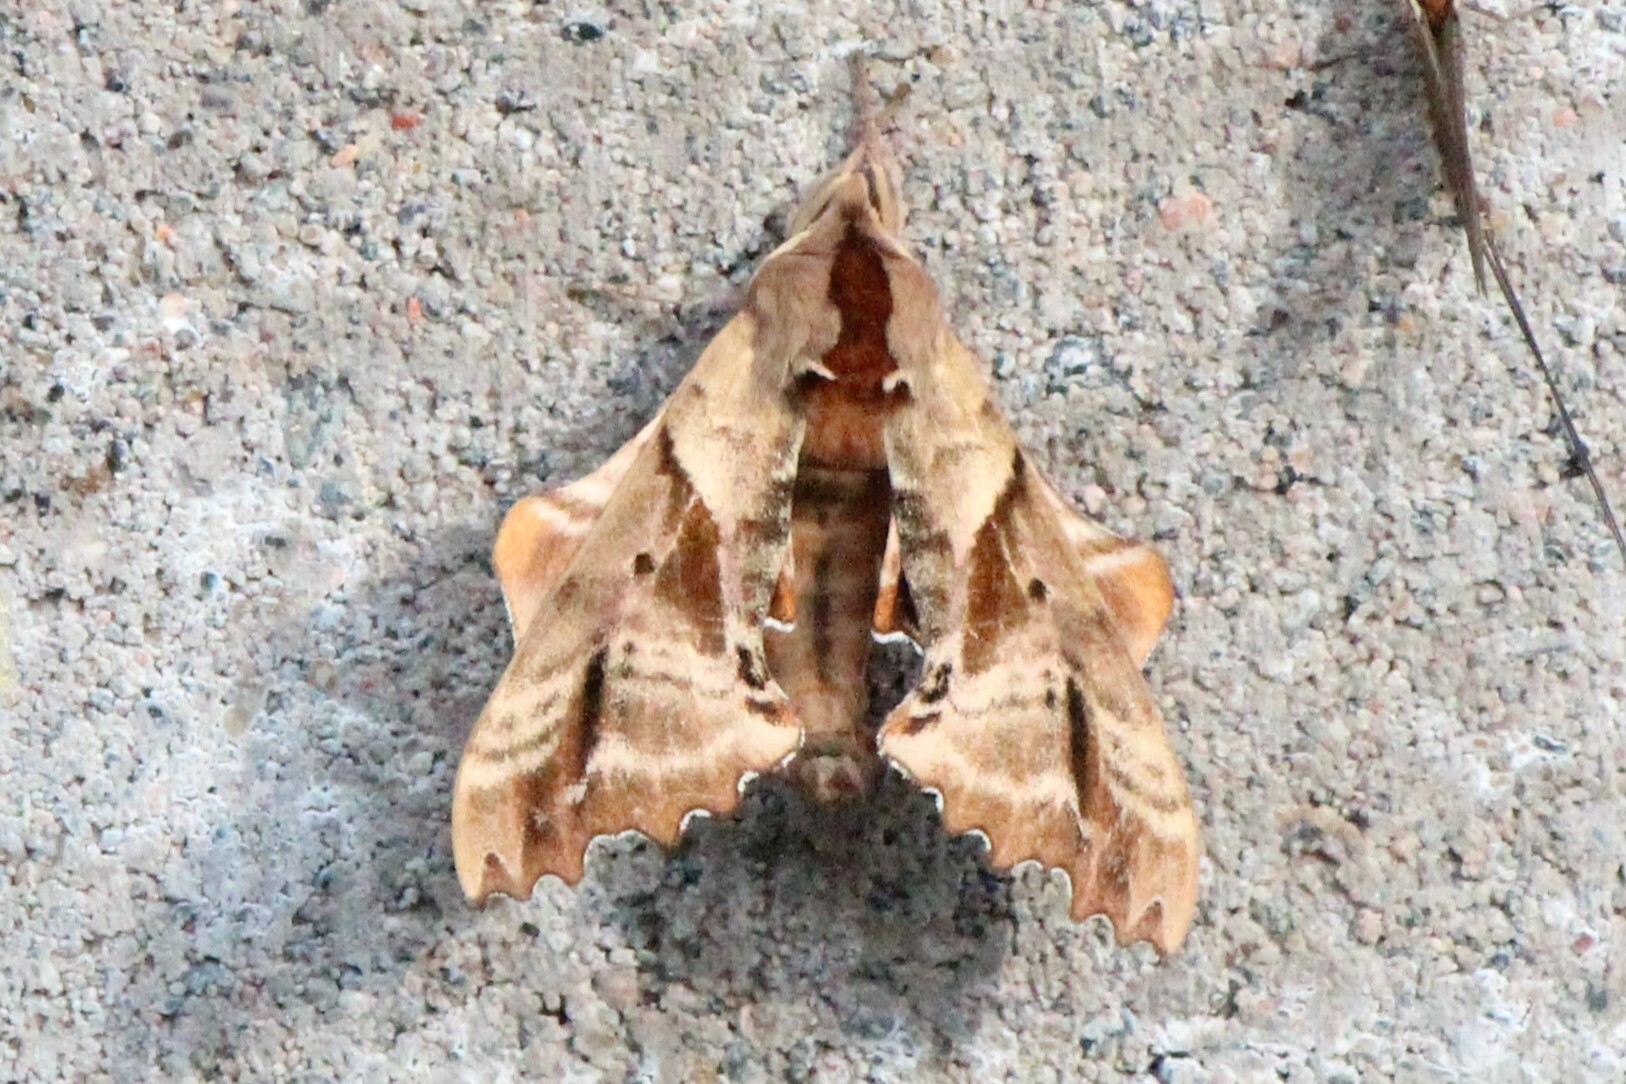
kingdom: Animalia
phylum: Arthropoda
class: Insecta
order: Lepidoptera
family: Sphingidae
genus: Paonias
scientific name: Paonias excaecata
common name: Blind-eyed sphinx
